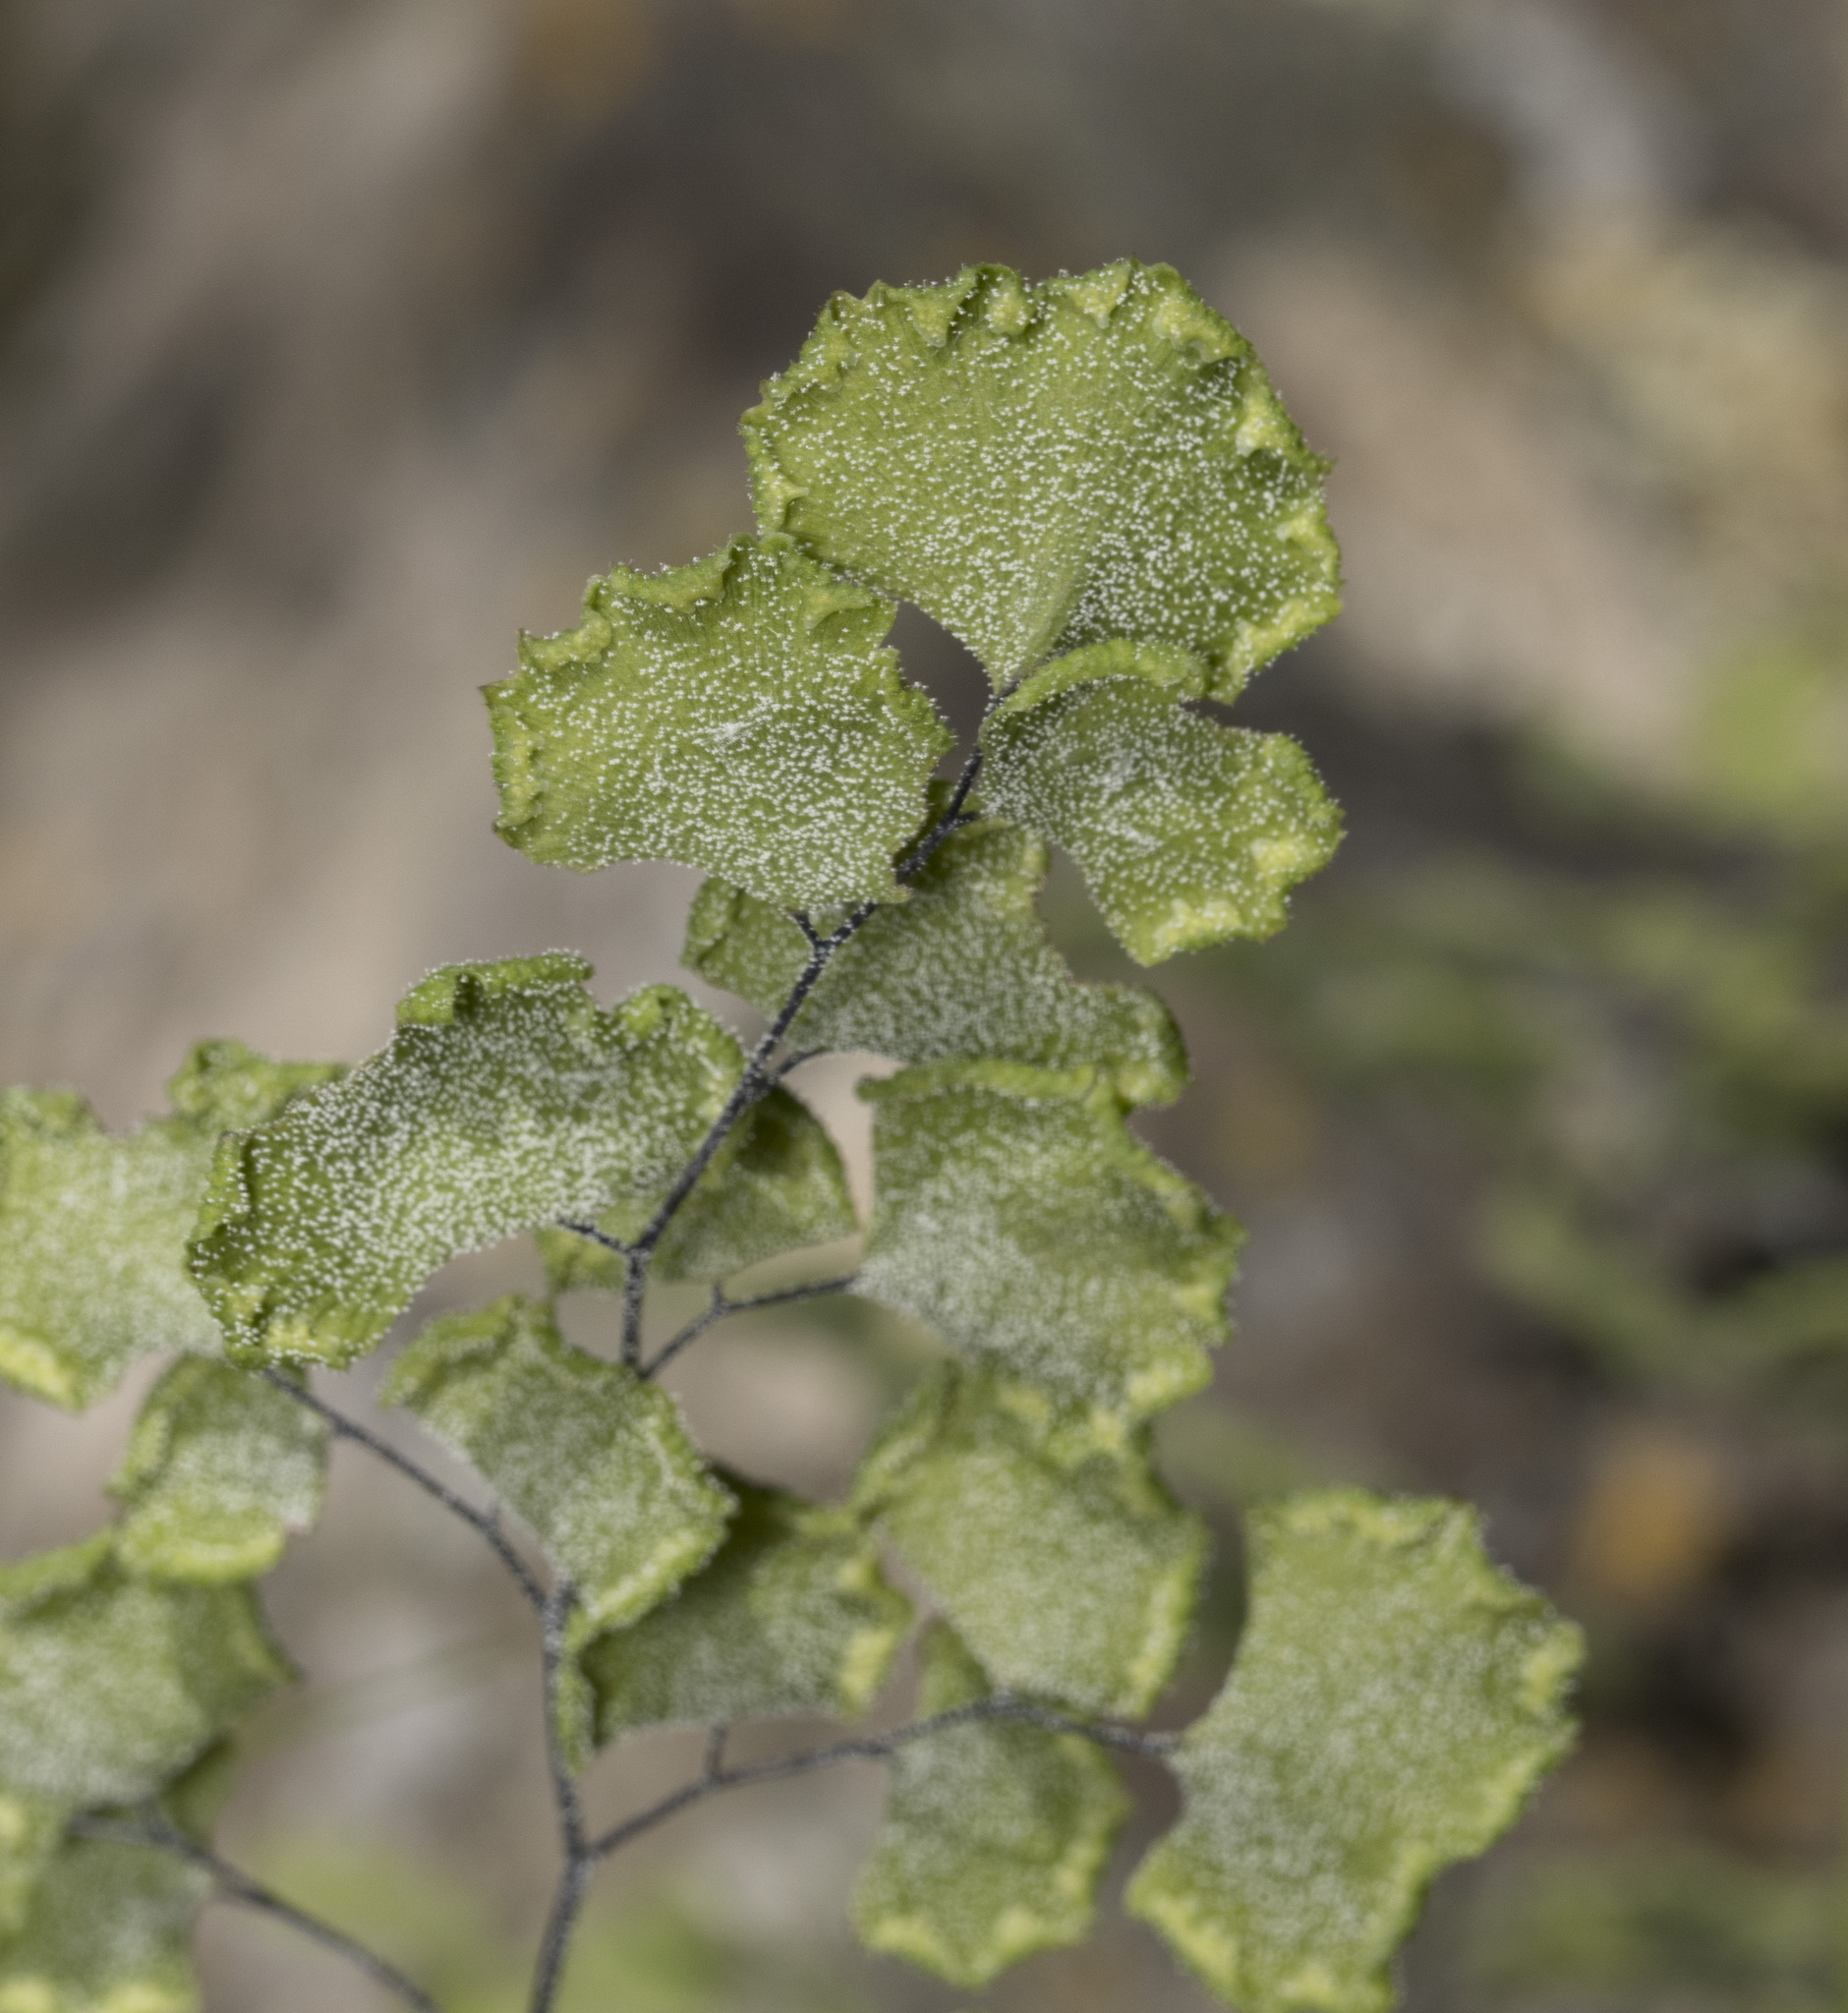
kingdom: Plantae
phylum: Tracheophyta
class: Polypodiopsida
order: Polypodiales
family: Pteridaceae
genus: Adiantum
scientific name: Adiantum chilense
